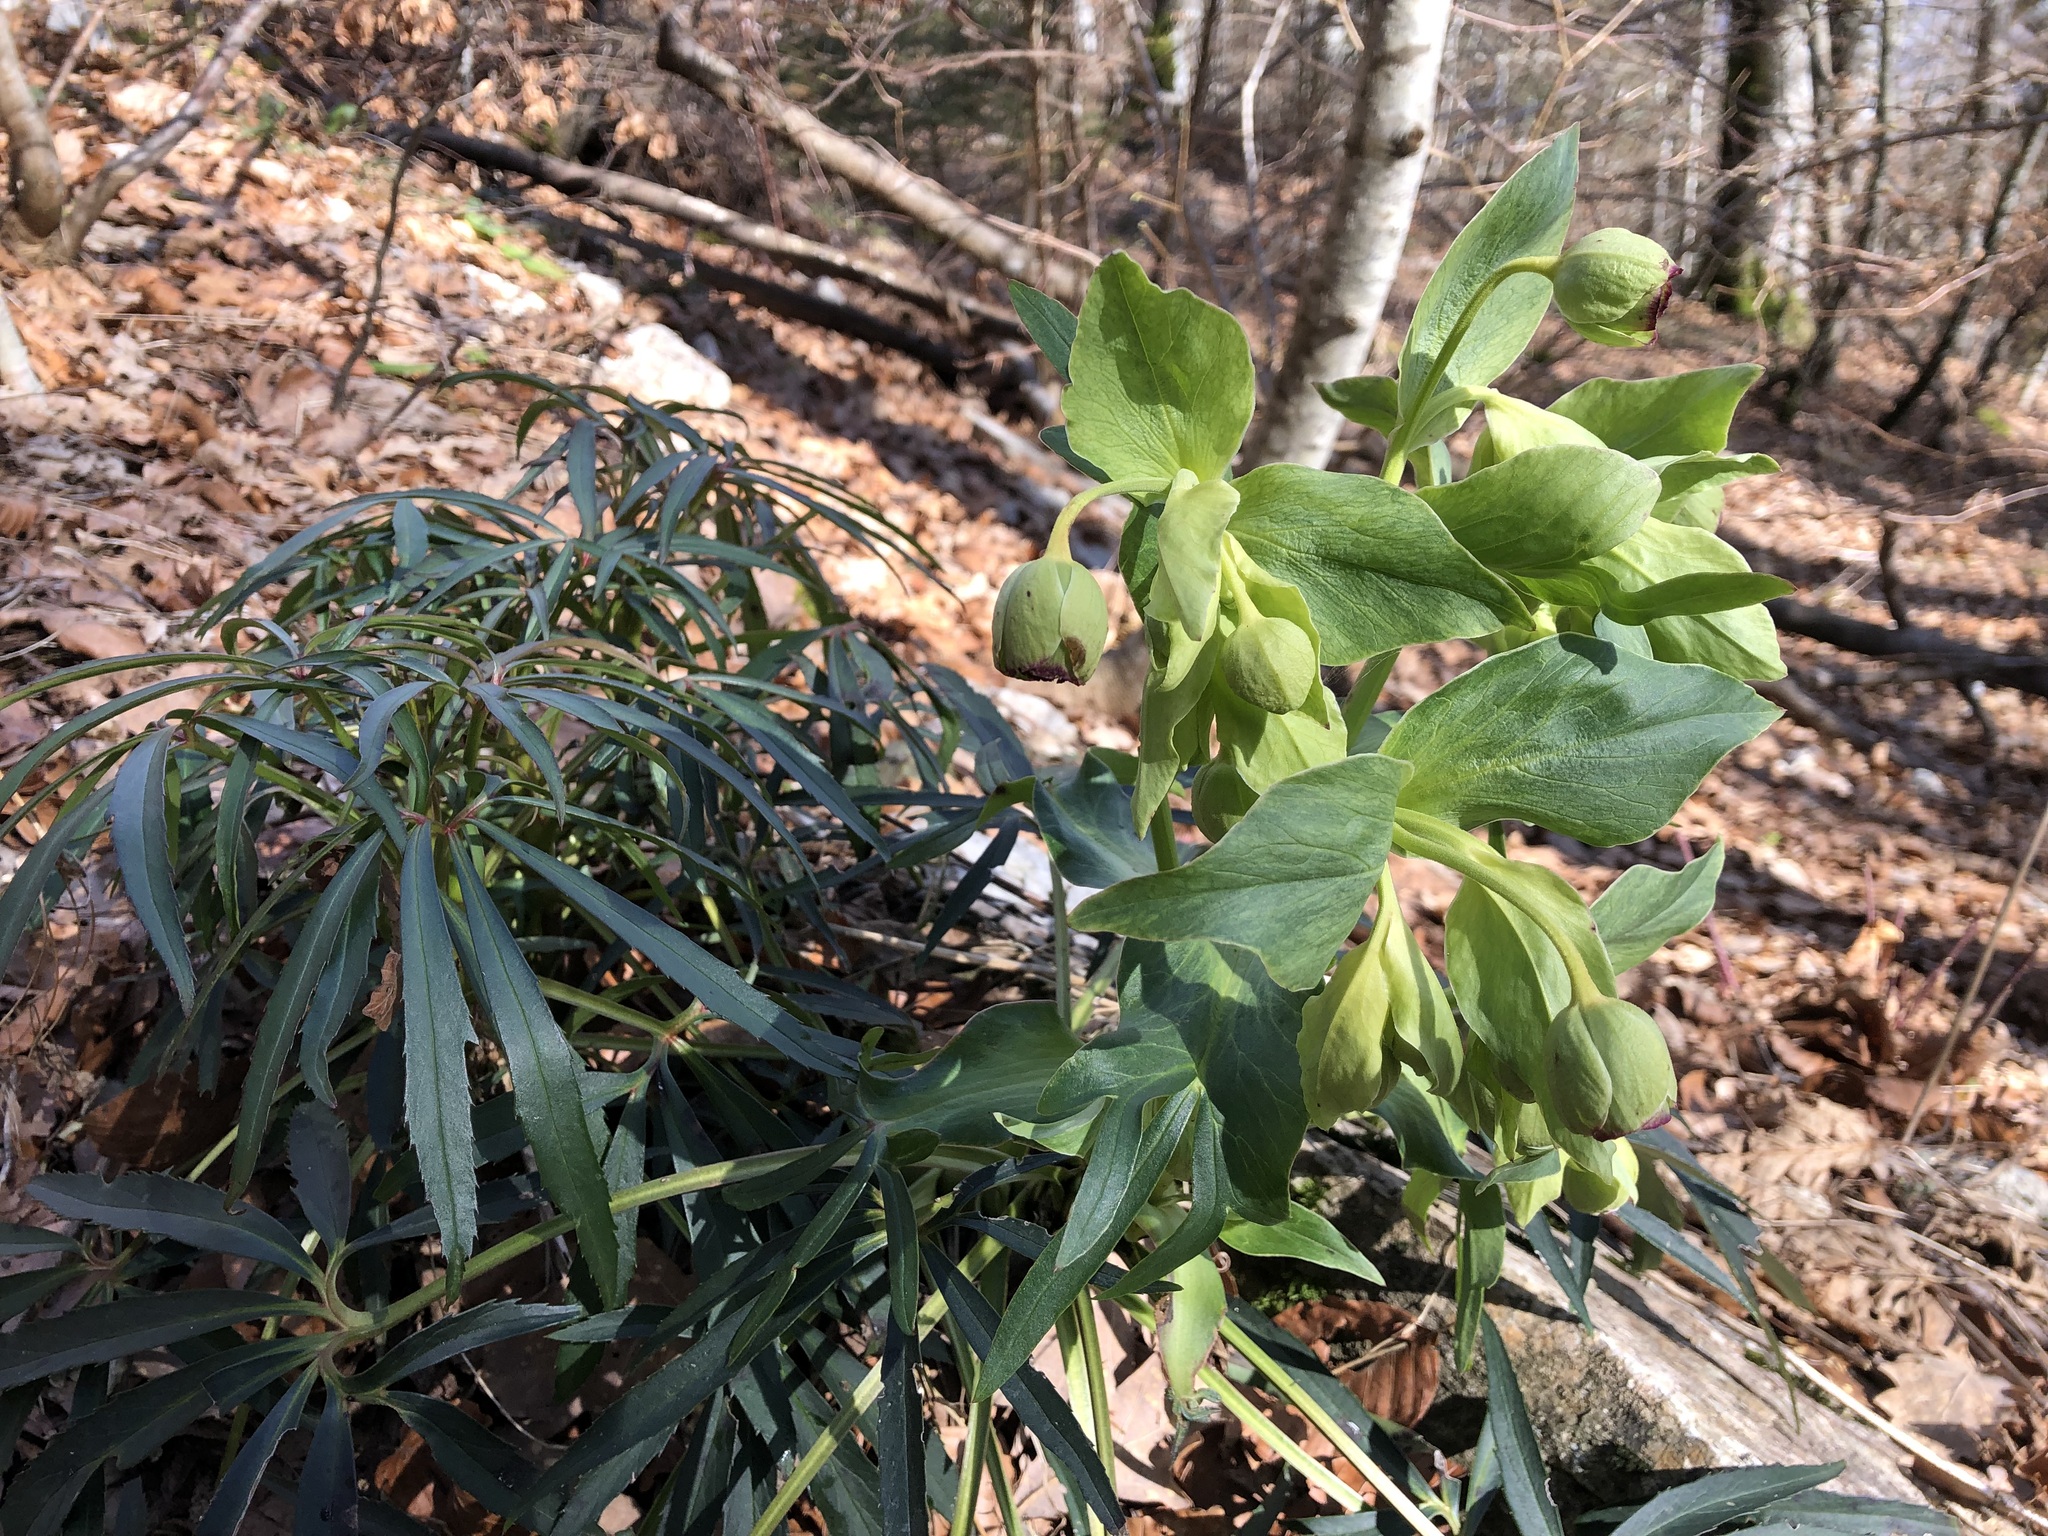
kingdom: Plantae
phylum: Tracheophyta
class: Magnoliopsida
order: Ranunculales
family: Ranunculaceae
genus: Helleborus
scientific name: Helleborus foetidus
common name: Stinking hellebore
